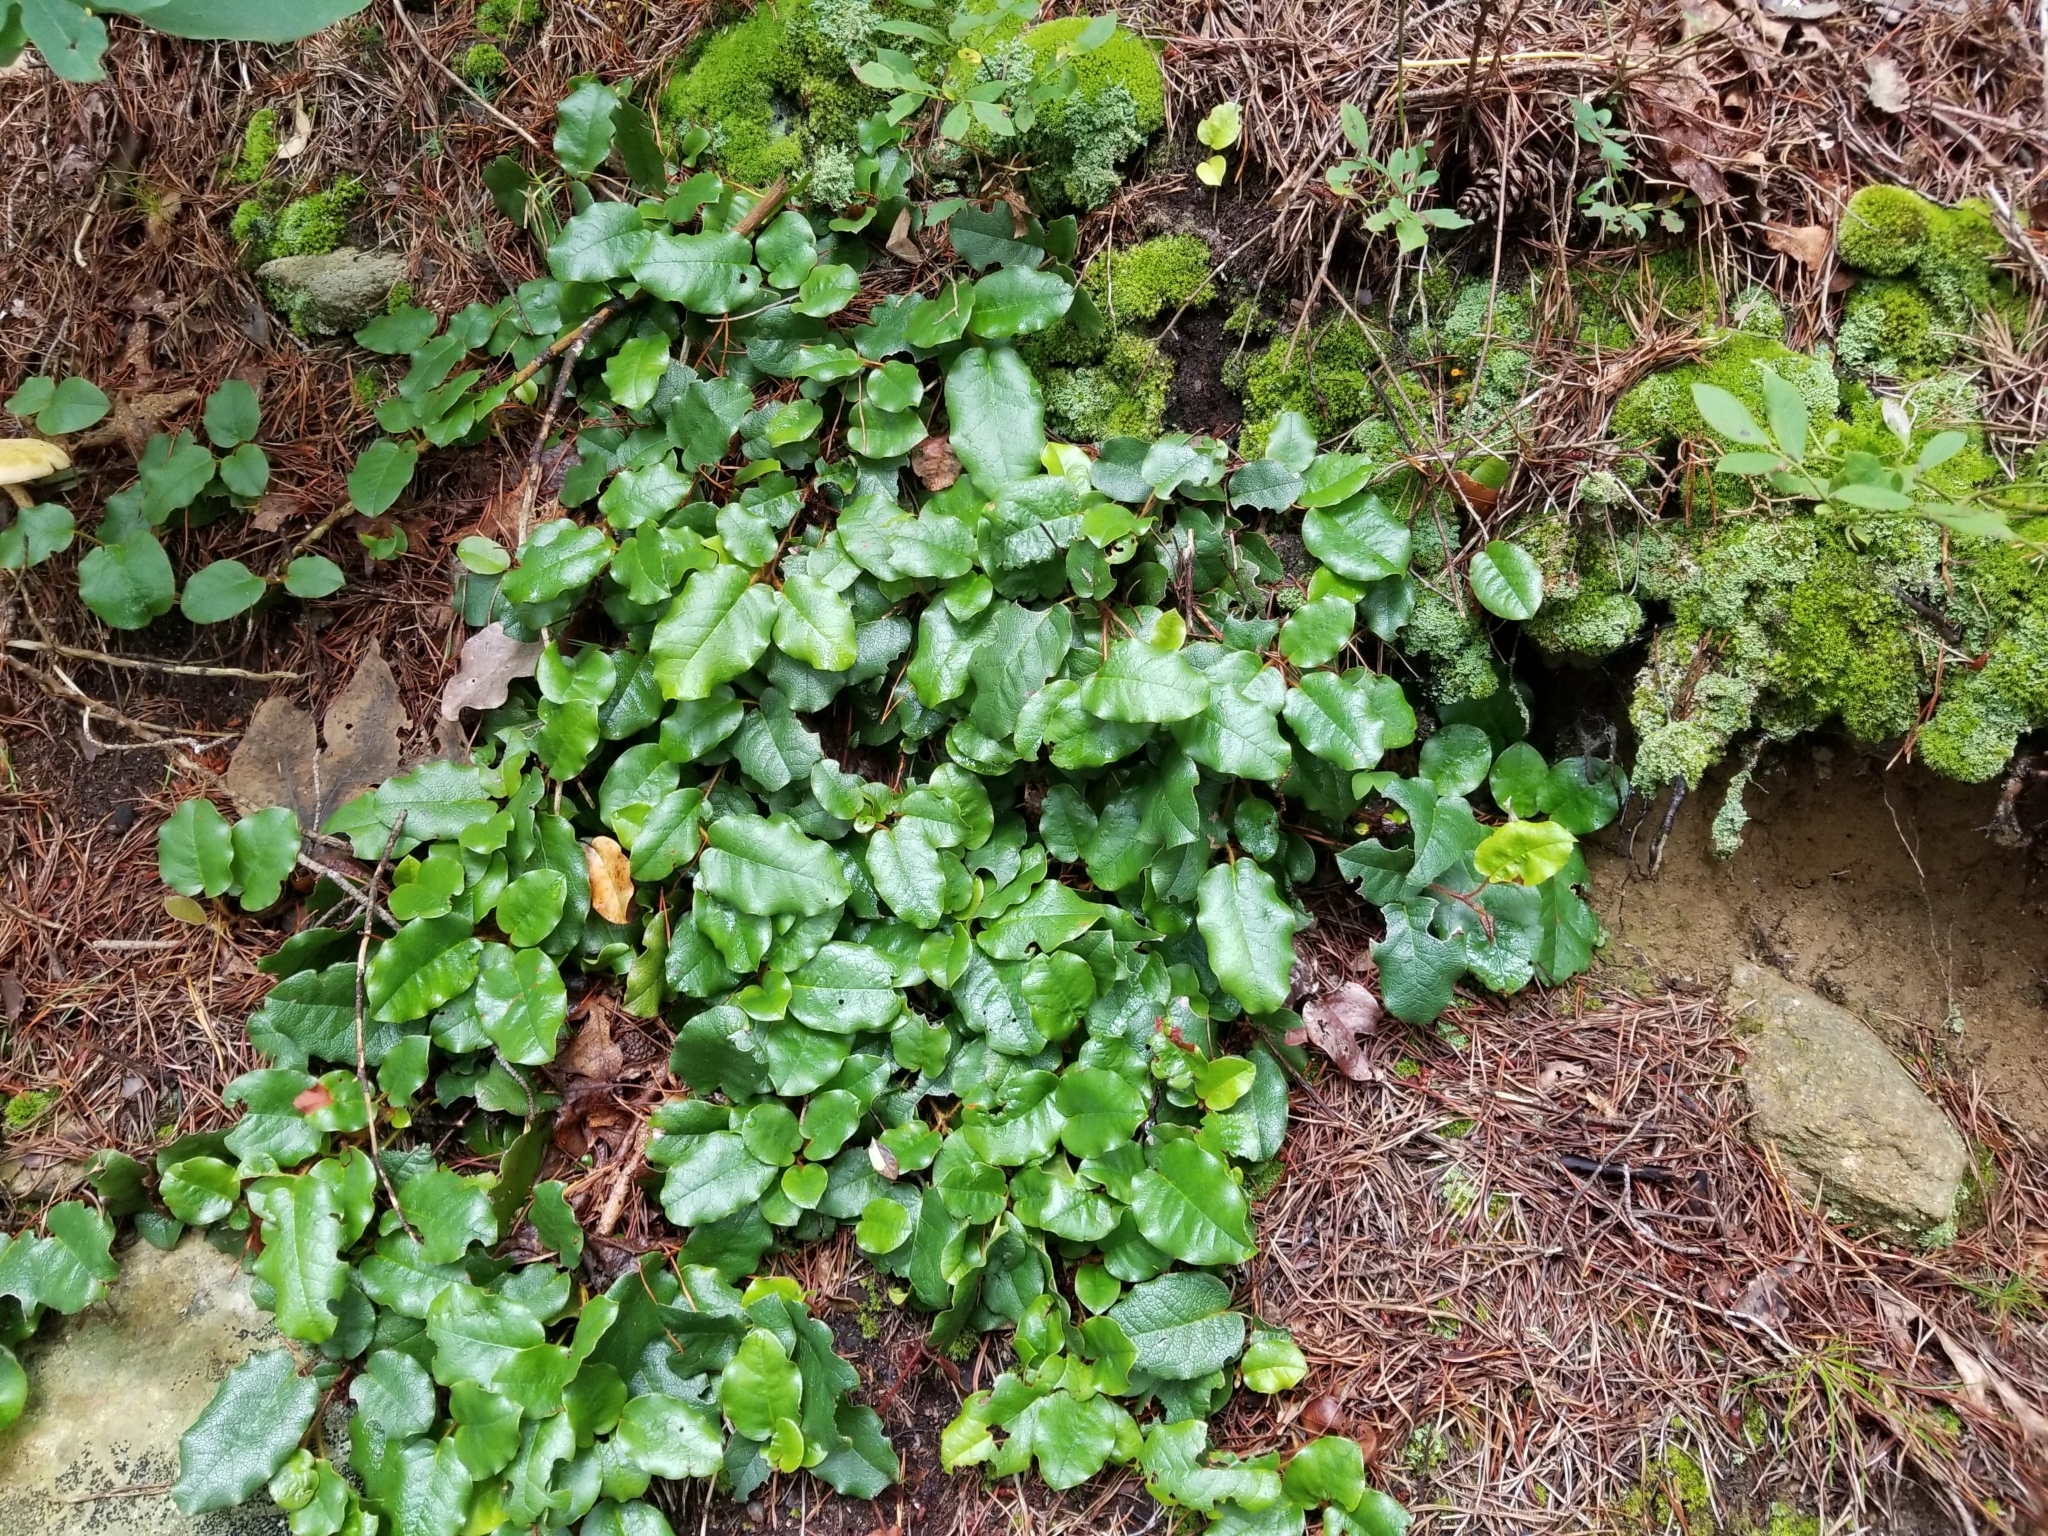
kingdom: Plantae
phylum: Tracheophyta
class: Magnoliopsida
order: Ericales
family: Ericaceae
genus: Epigaea
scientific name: Epigaea repens
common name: Gravelroot
